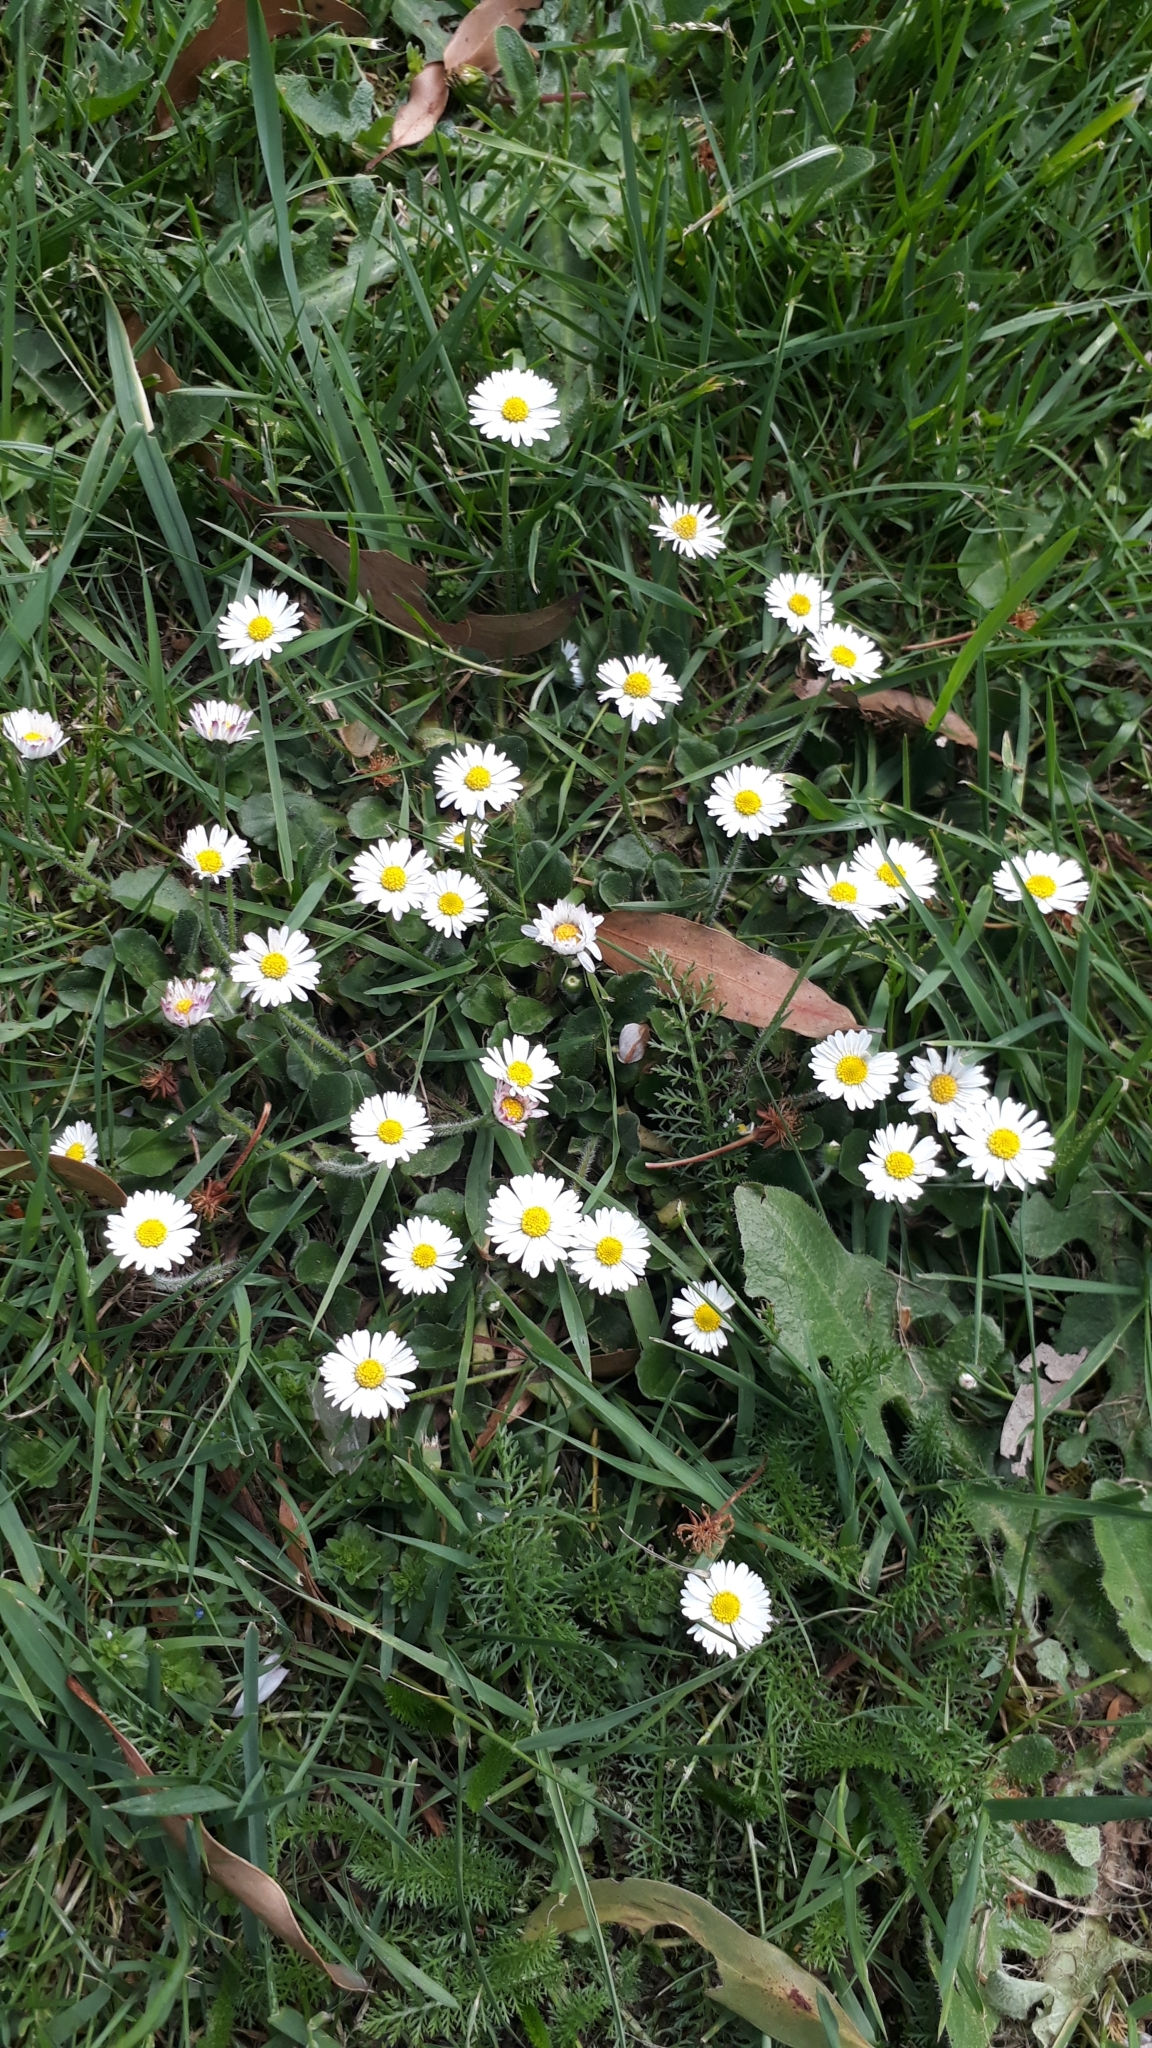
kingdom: Plantae
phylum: Tracheophyta
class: Magnoliopsida
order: Asterales
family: Asteraceae
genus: Bellis
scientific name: Bellis perennis
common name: Lawndaisy
